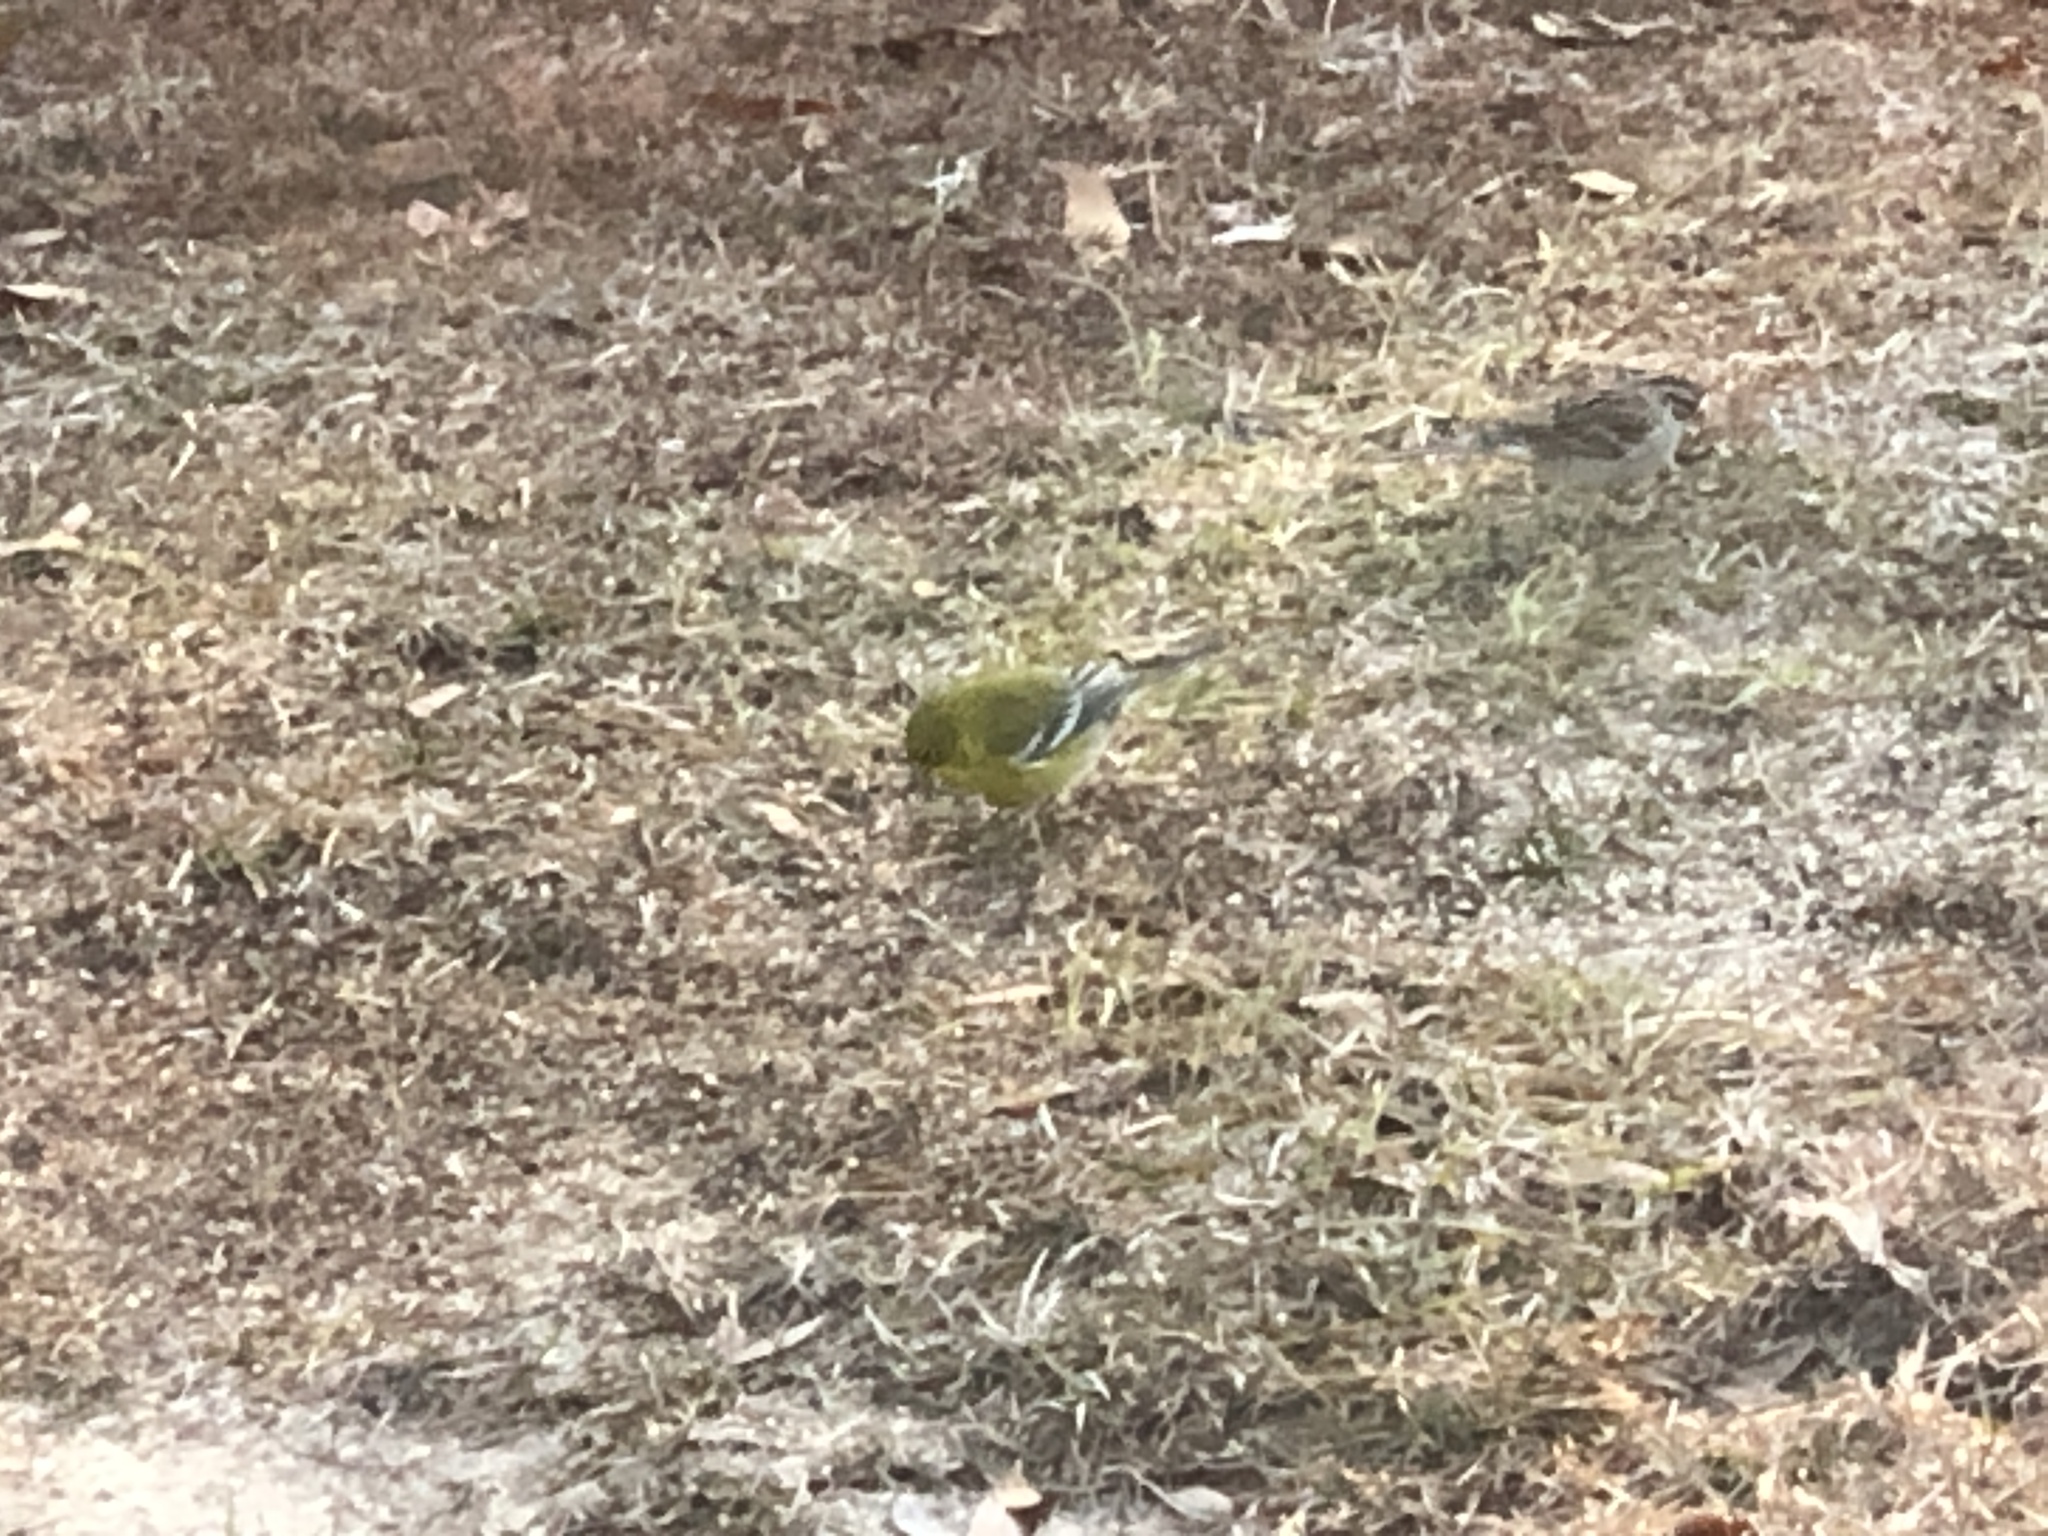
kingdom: Animalia
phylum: Chordata
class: Aves
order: Passeriformes
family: Parulidae
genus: Setophaga
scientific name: Setophaga pinus
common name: Pine warbler
